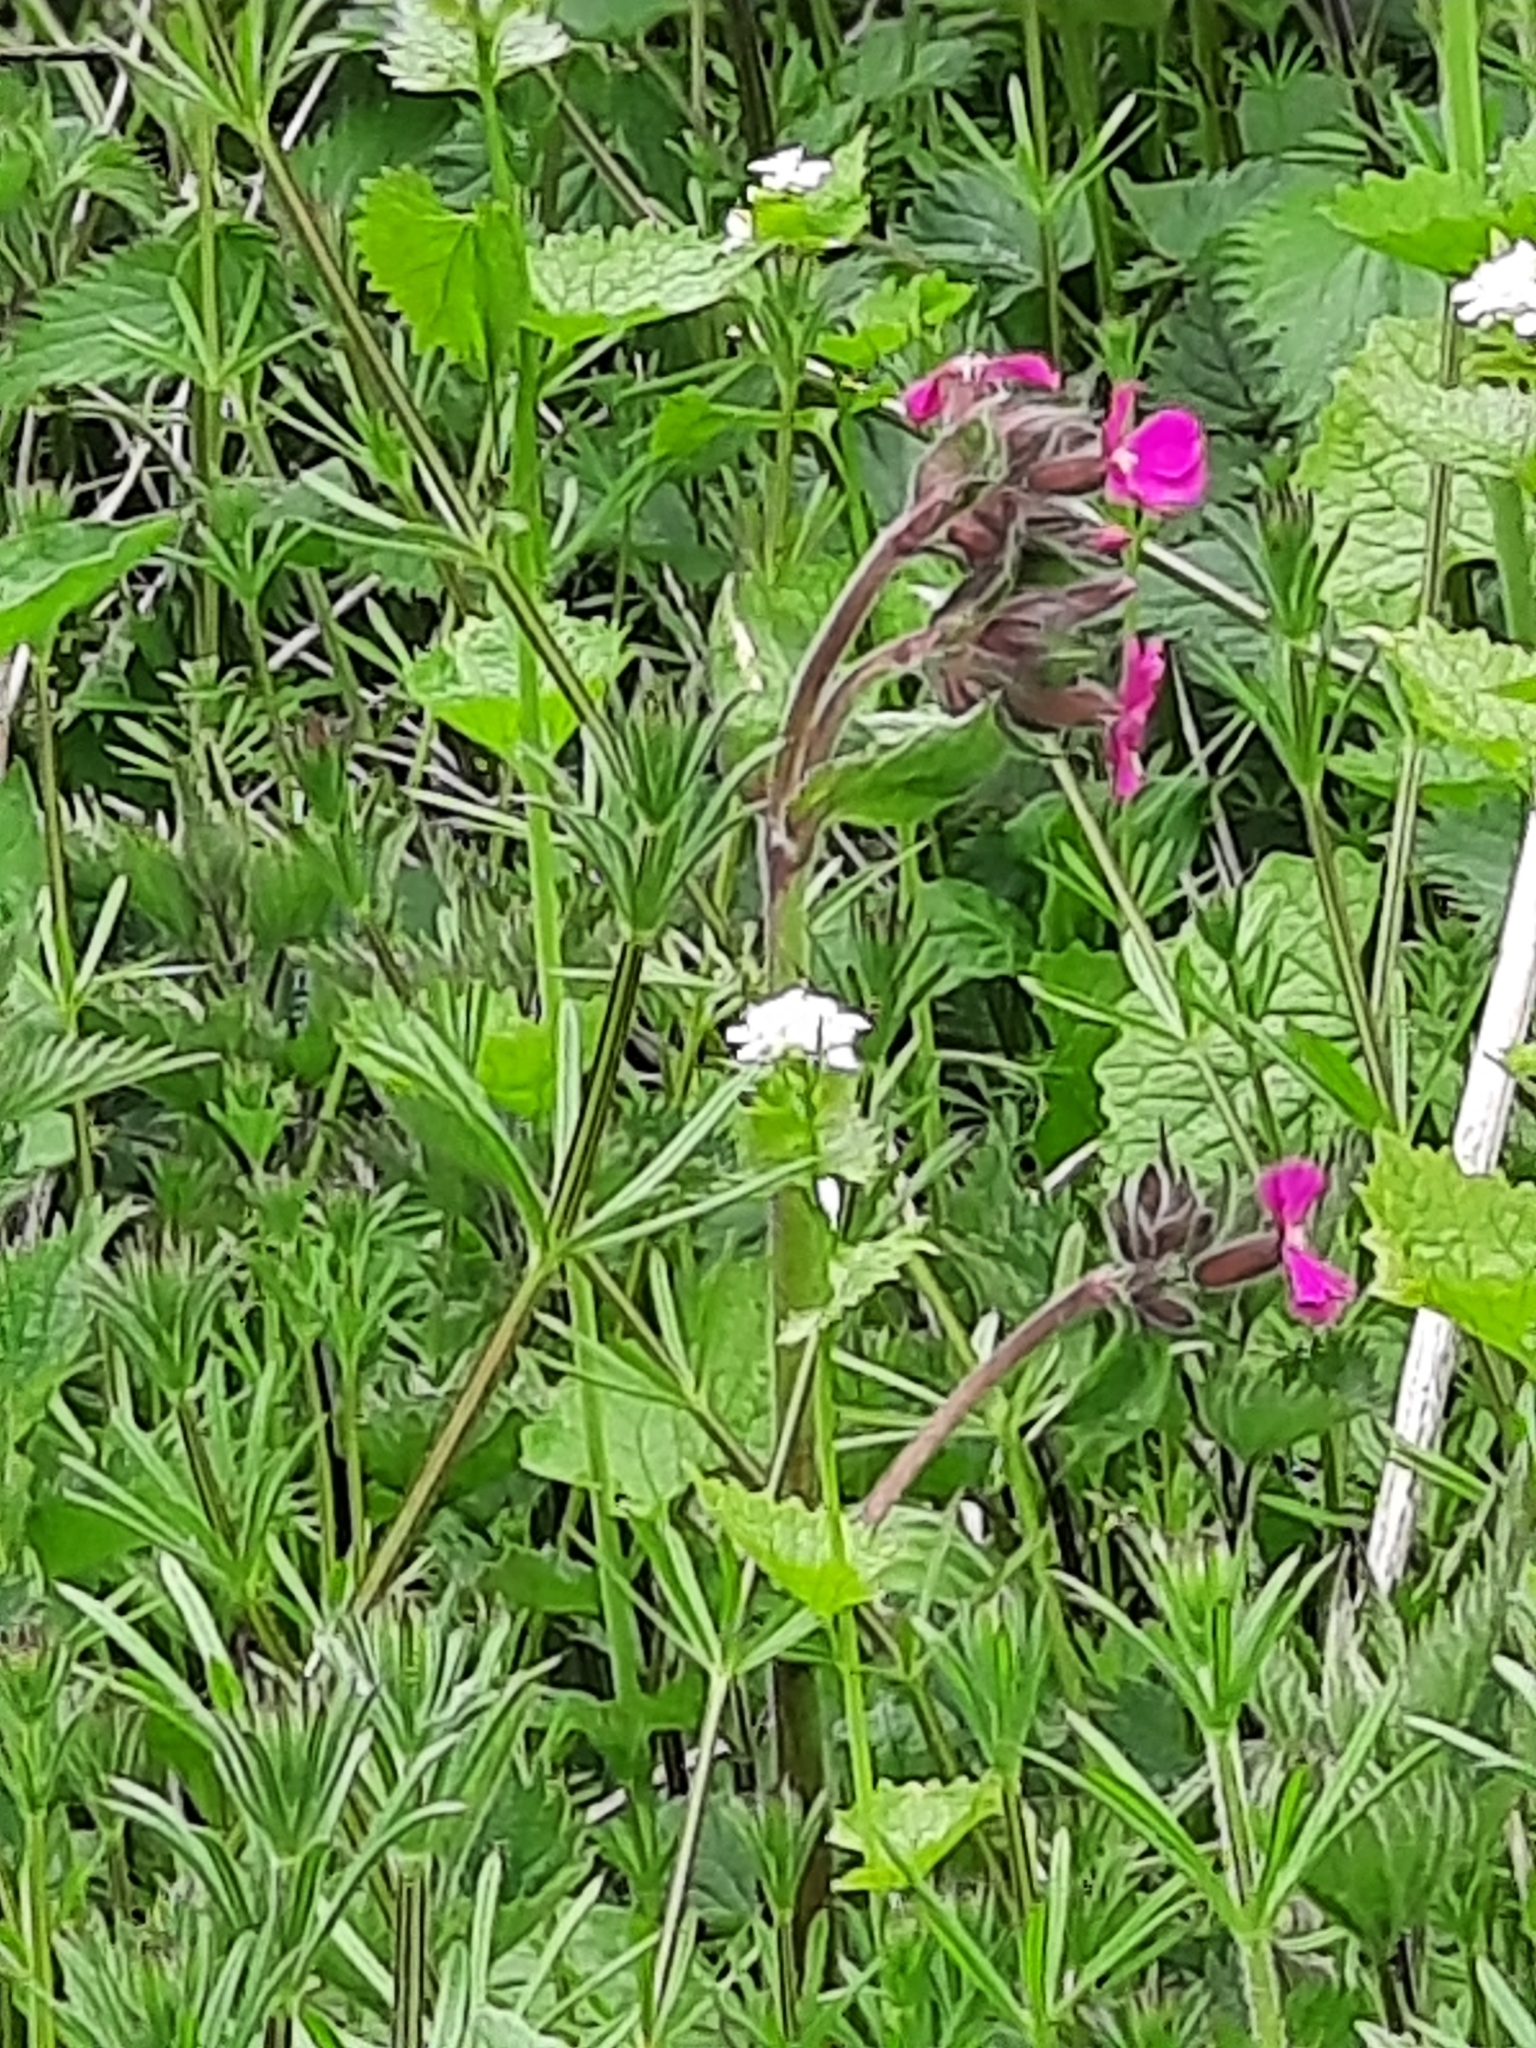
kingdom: Plantae
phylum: Tracheophyta
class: Magnoliopsida
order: Caryophyllales
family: Caryophyllaceae
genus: Silene
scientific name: Silene dioica
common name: Red campion
